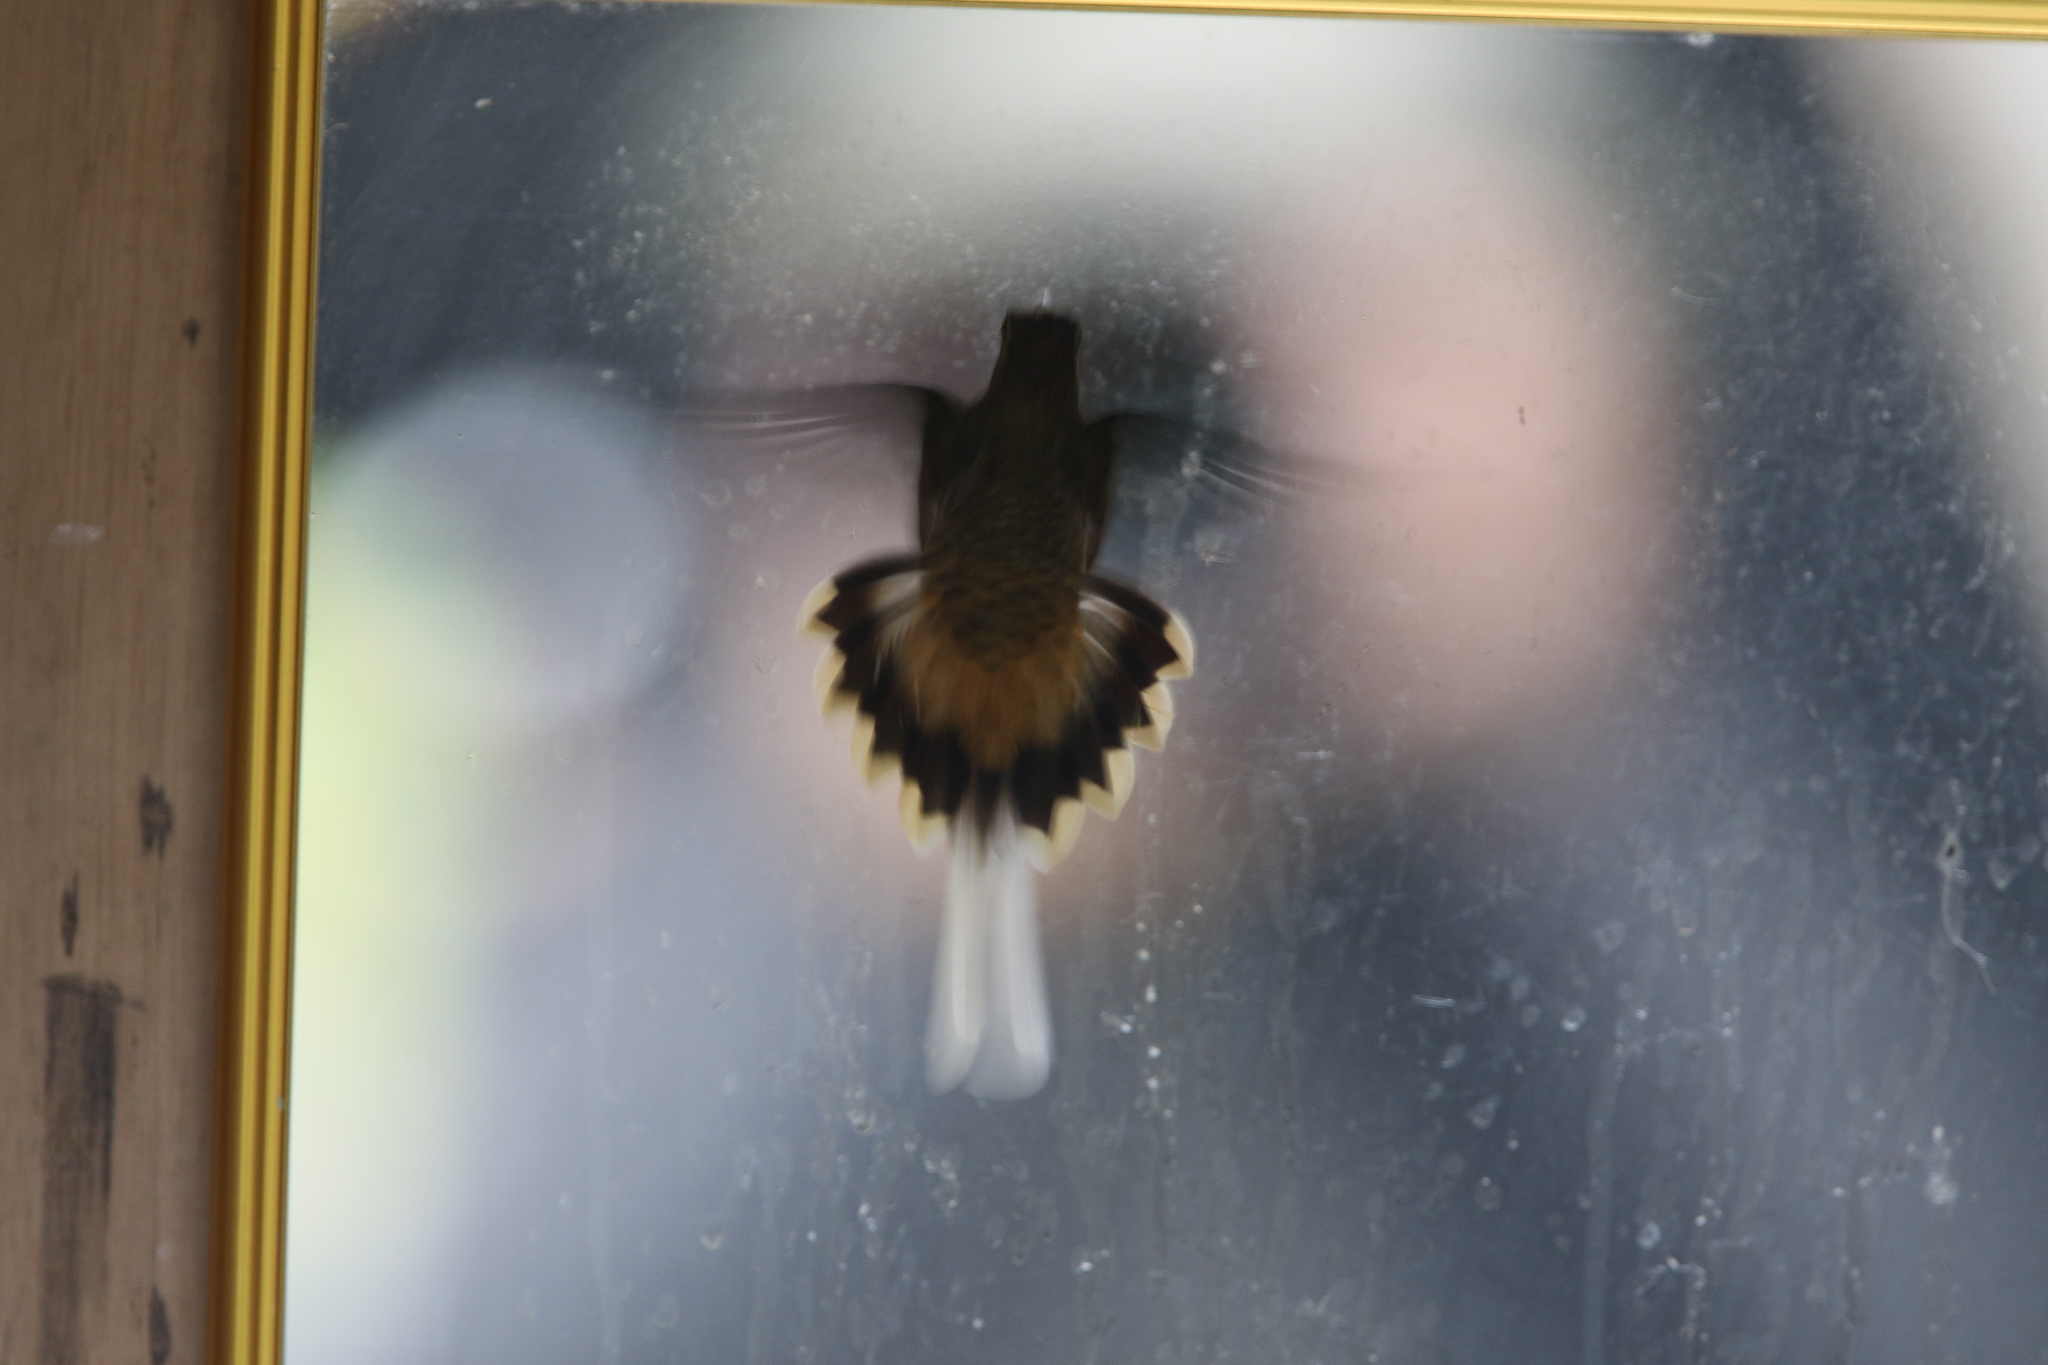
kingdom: Animalia
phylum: Chordata
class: Aves
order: Apodiformes
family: Trochilidae
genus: Phaethornis
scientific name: Phaethornis syrmatophorus
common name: Tawny-bellied hermit
